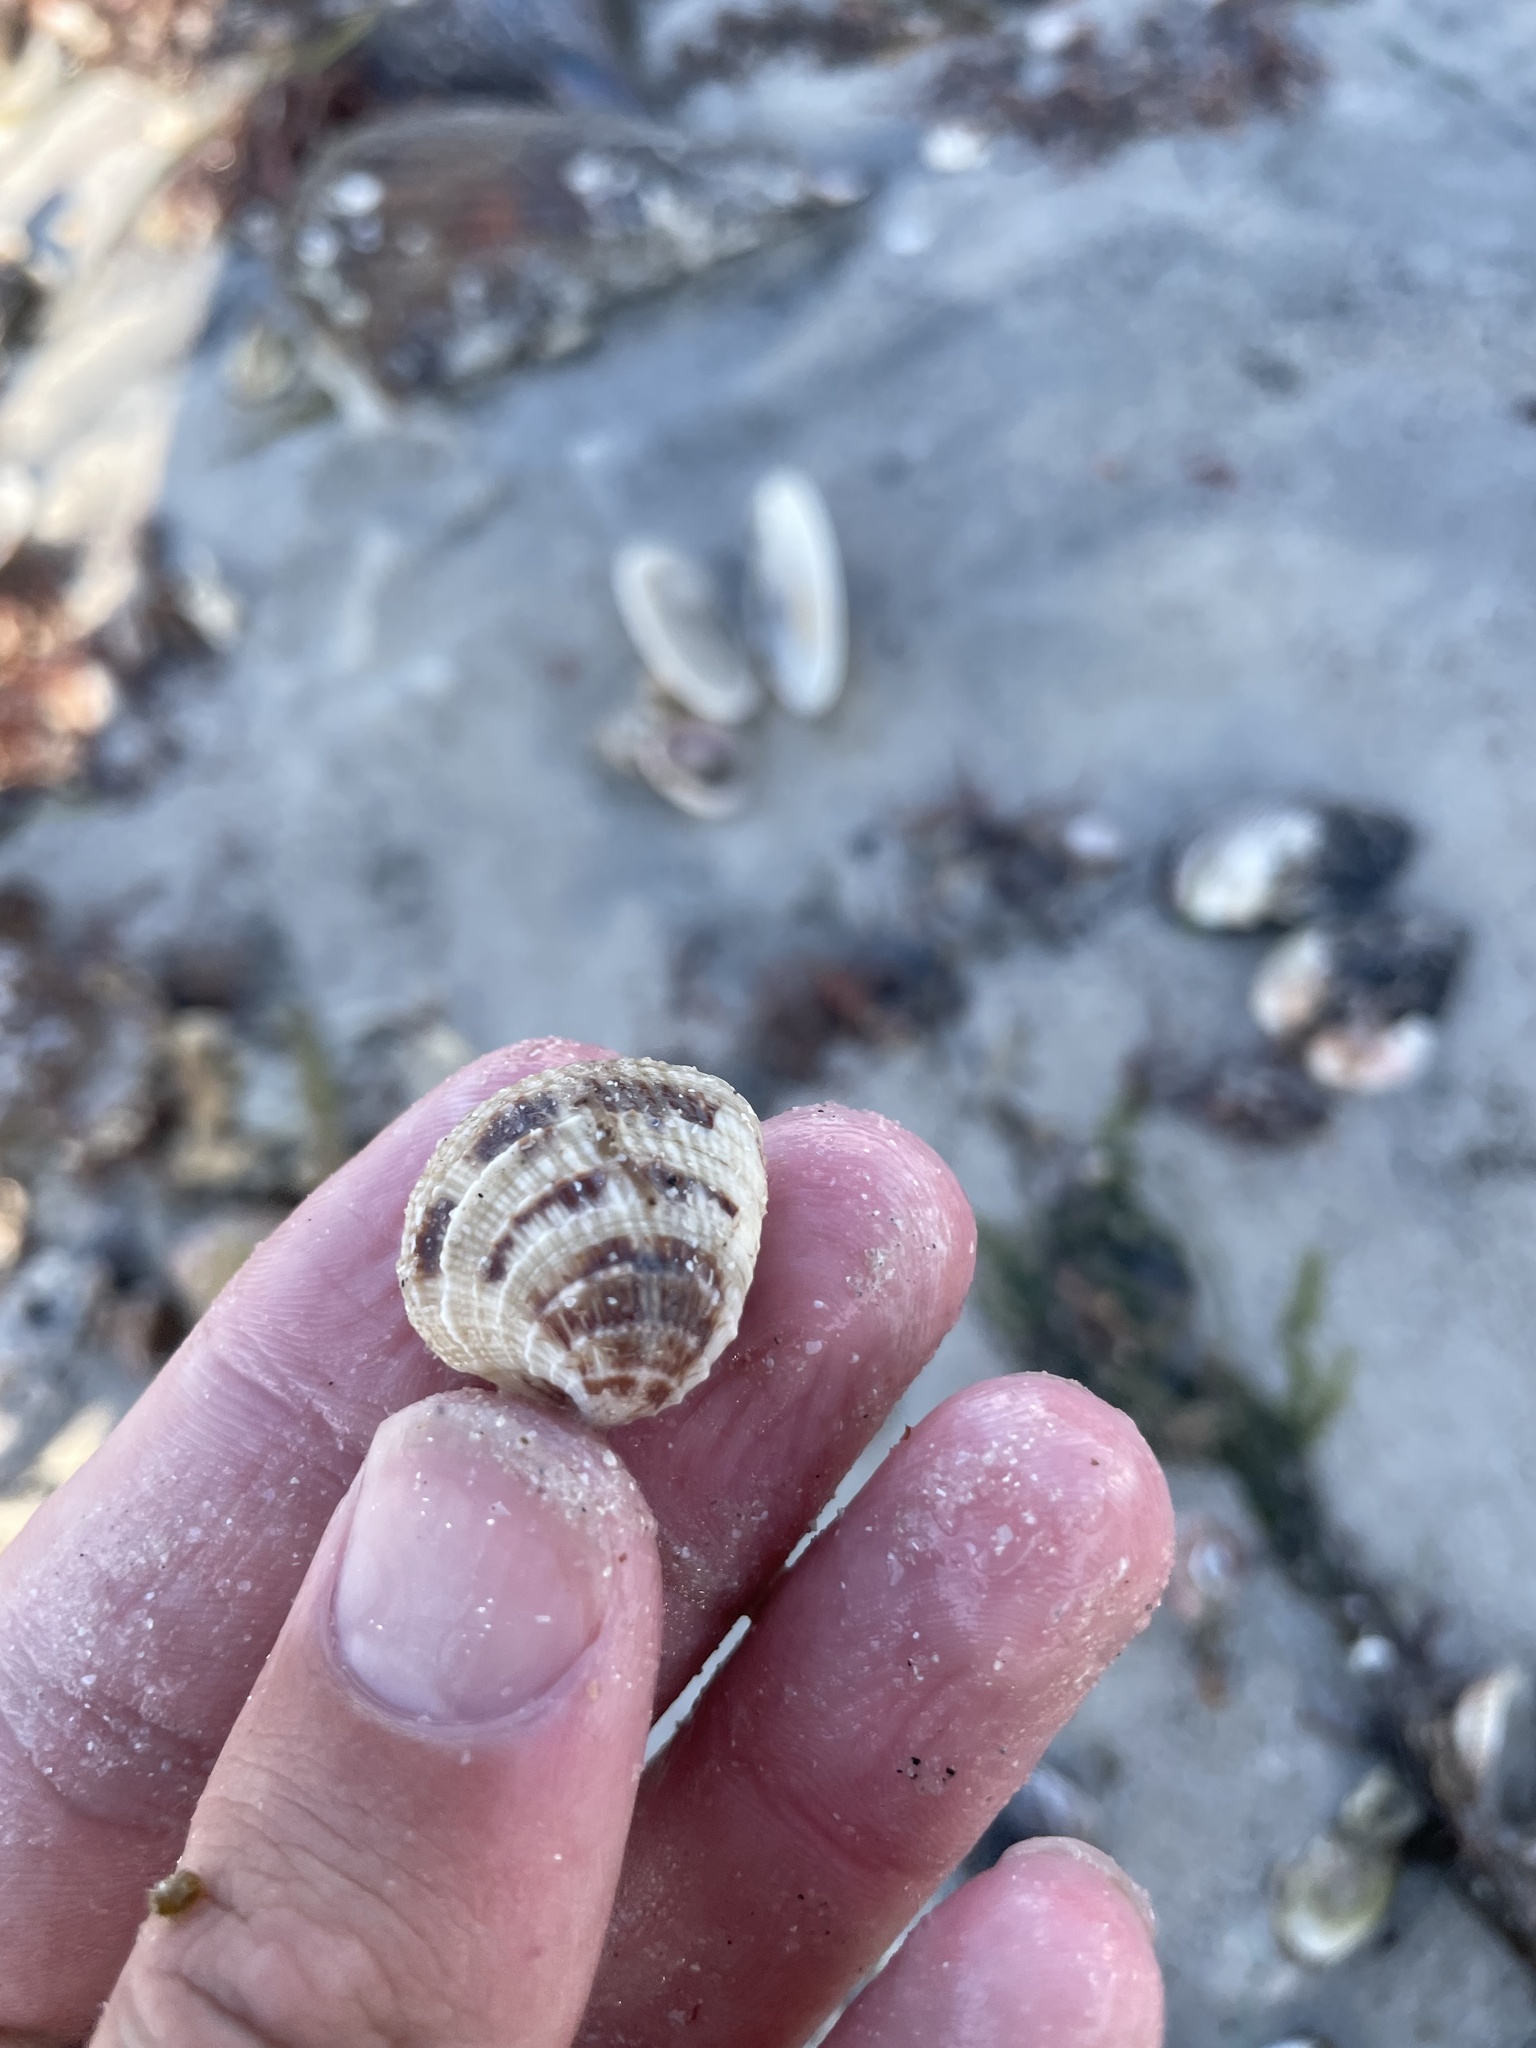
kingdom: Animalia
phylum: Mollusca
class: Bivalvia
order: Venerida
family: Veneridae
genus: Chione
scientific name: Chione elevata
